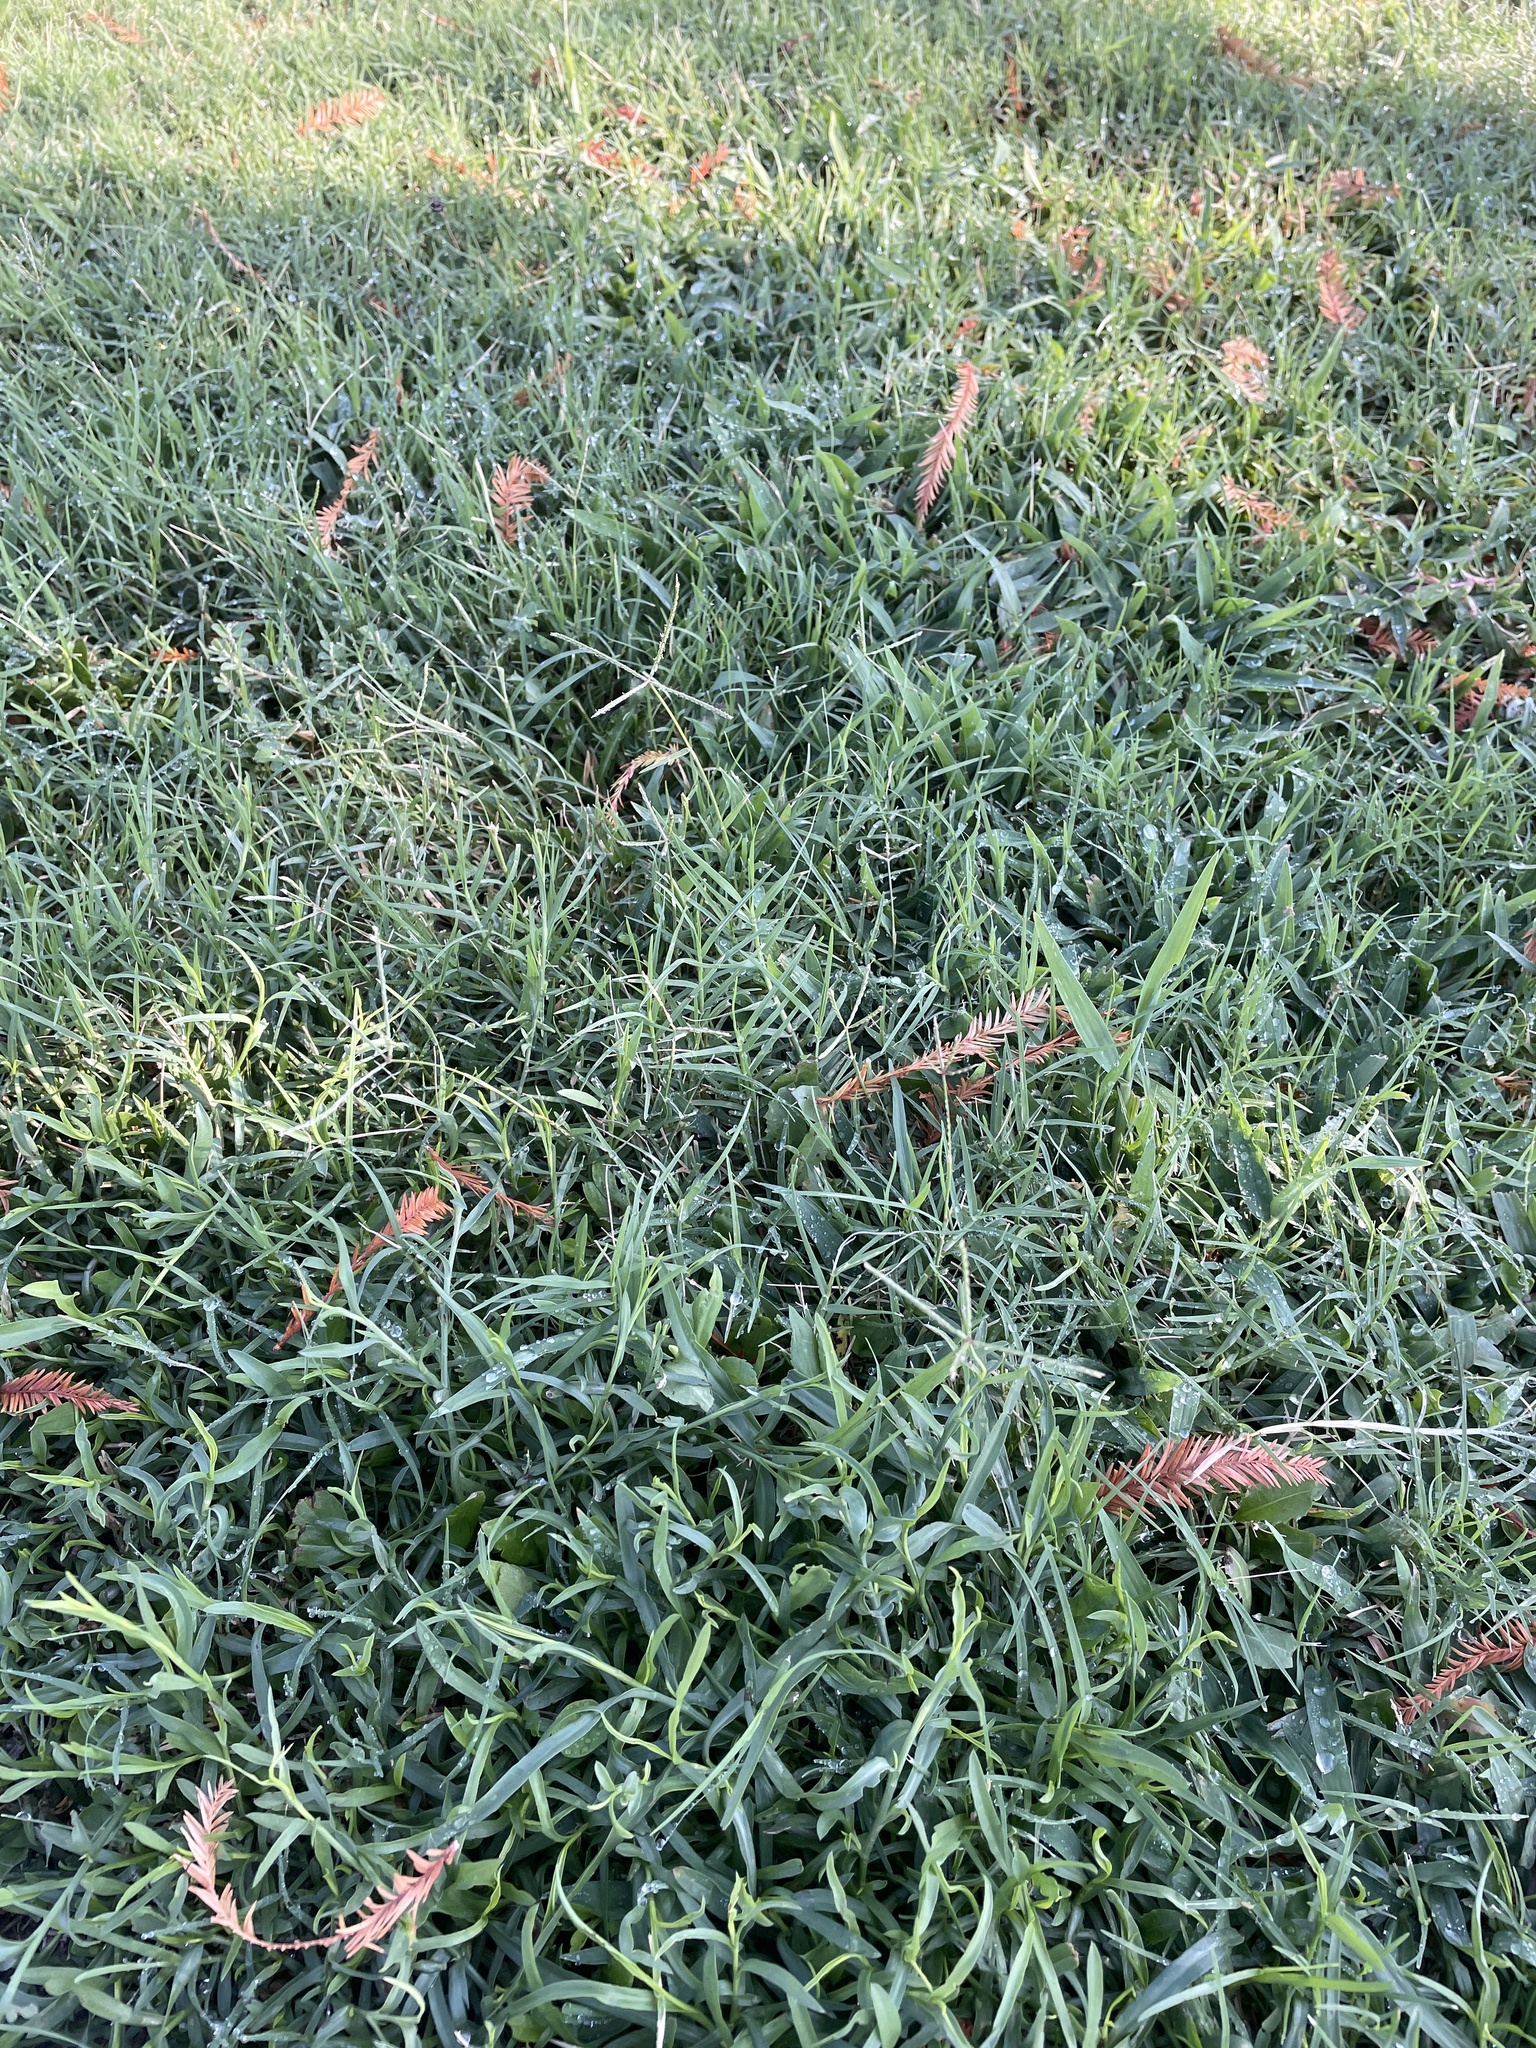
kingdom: Plantae
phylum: Tracheophyta
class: Liliopsida
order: Poales
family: Poaceae
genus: Cynodon
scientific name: Cynodon dactylon
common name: Bermuda grass
